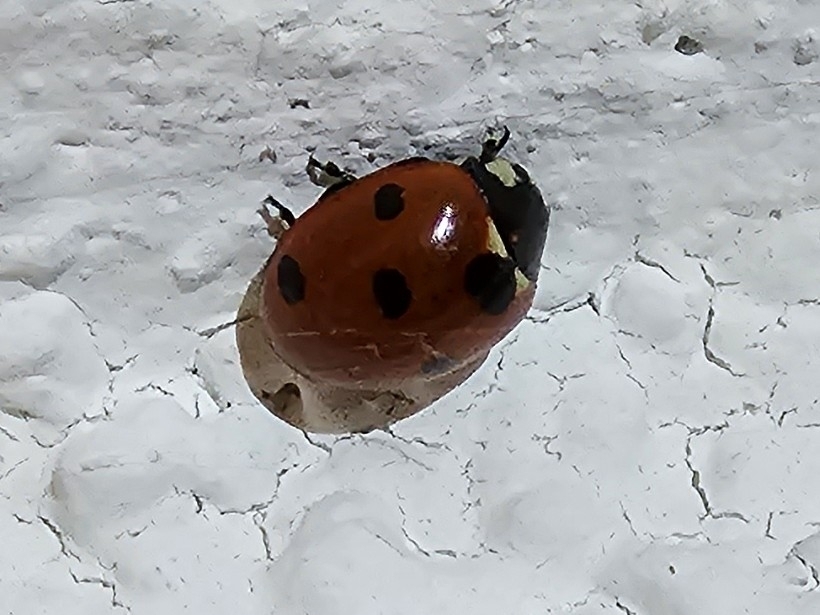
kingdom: Animalia
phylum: Arthropoda
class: Insecta
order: Coleoptera
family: Coccinellidae
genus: Coccinella
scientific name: Coccinella septempunctata
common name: Sevenspotted lady beetle
